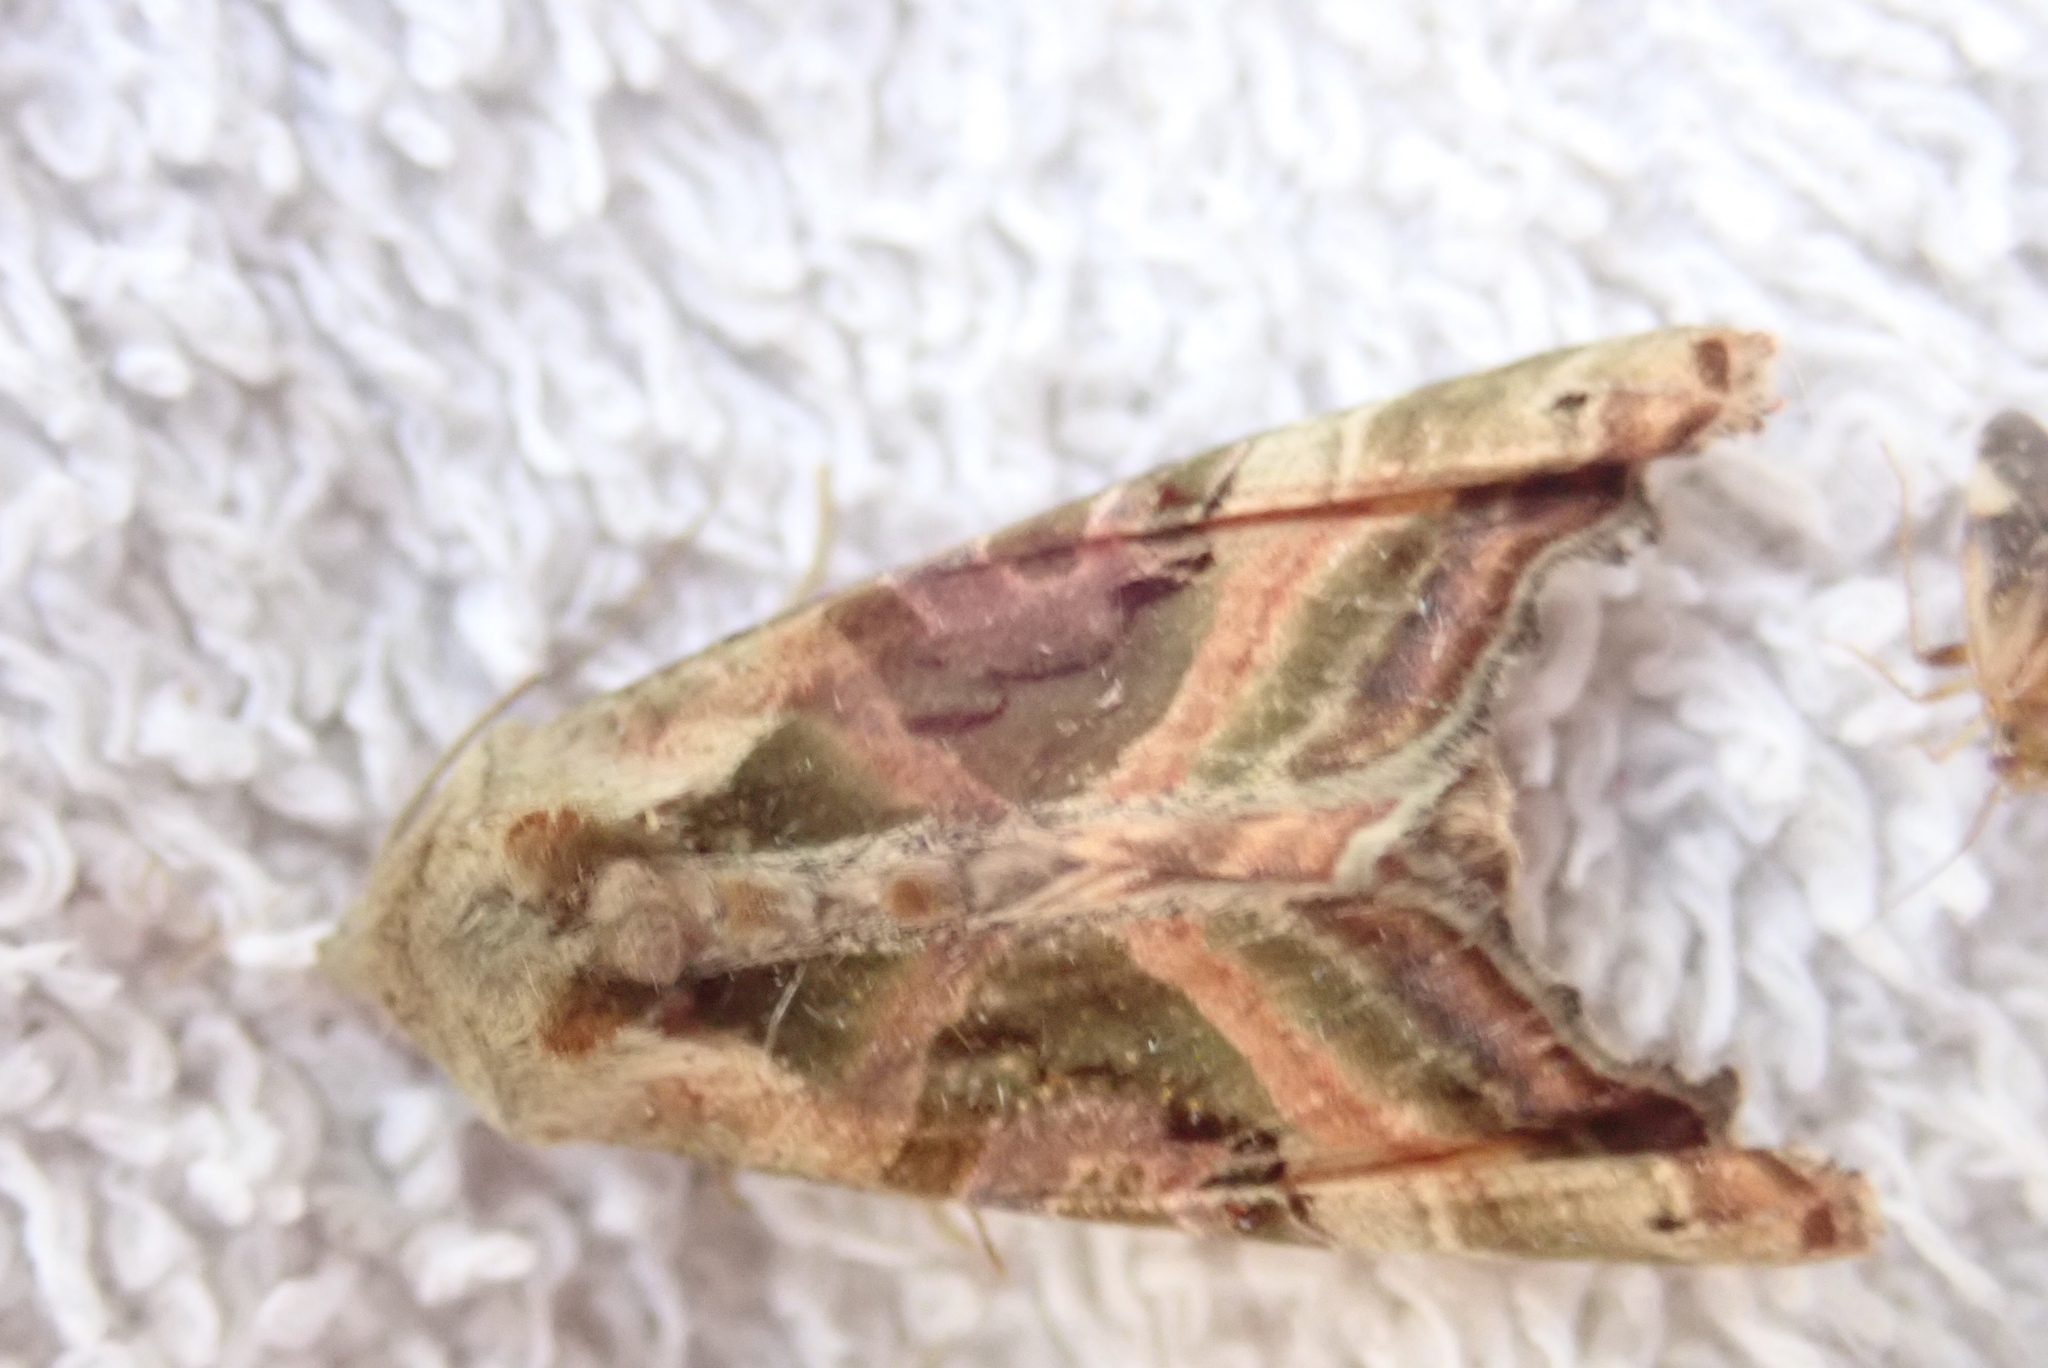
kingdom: Animalia
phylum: Arthropoda
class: Insecta
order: Lepidoptera
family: Noctuidae
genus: Phlogophora
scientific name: Phlogophora iris
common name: Olive angle shades
